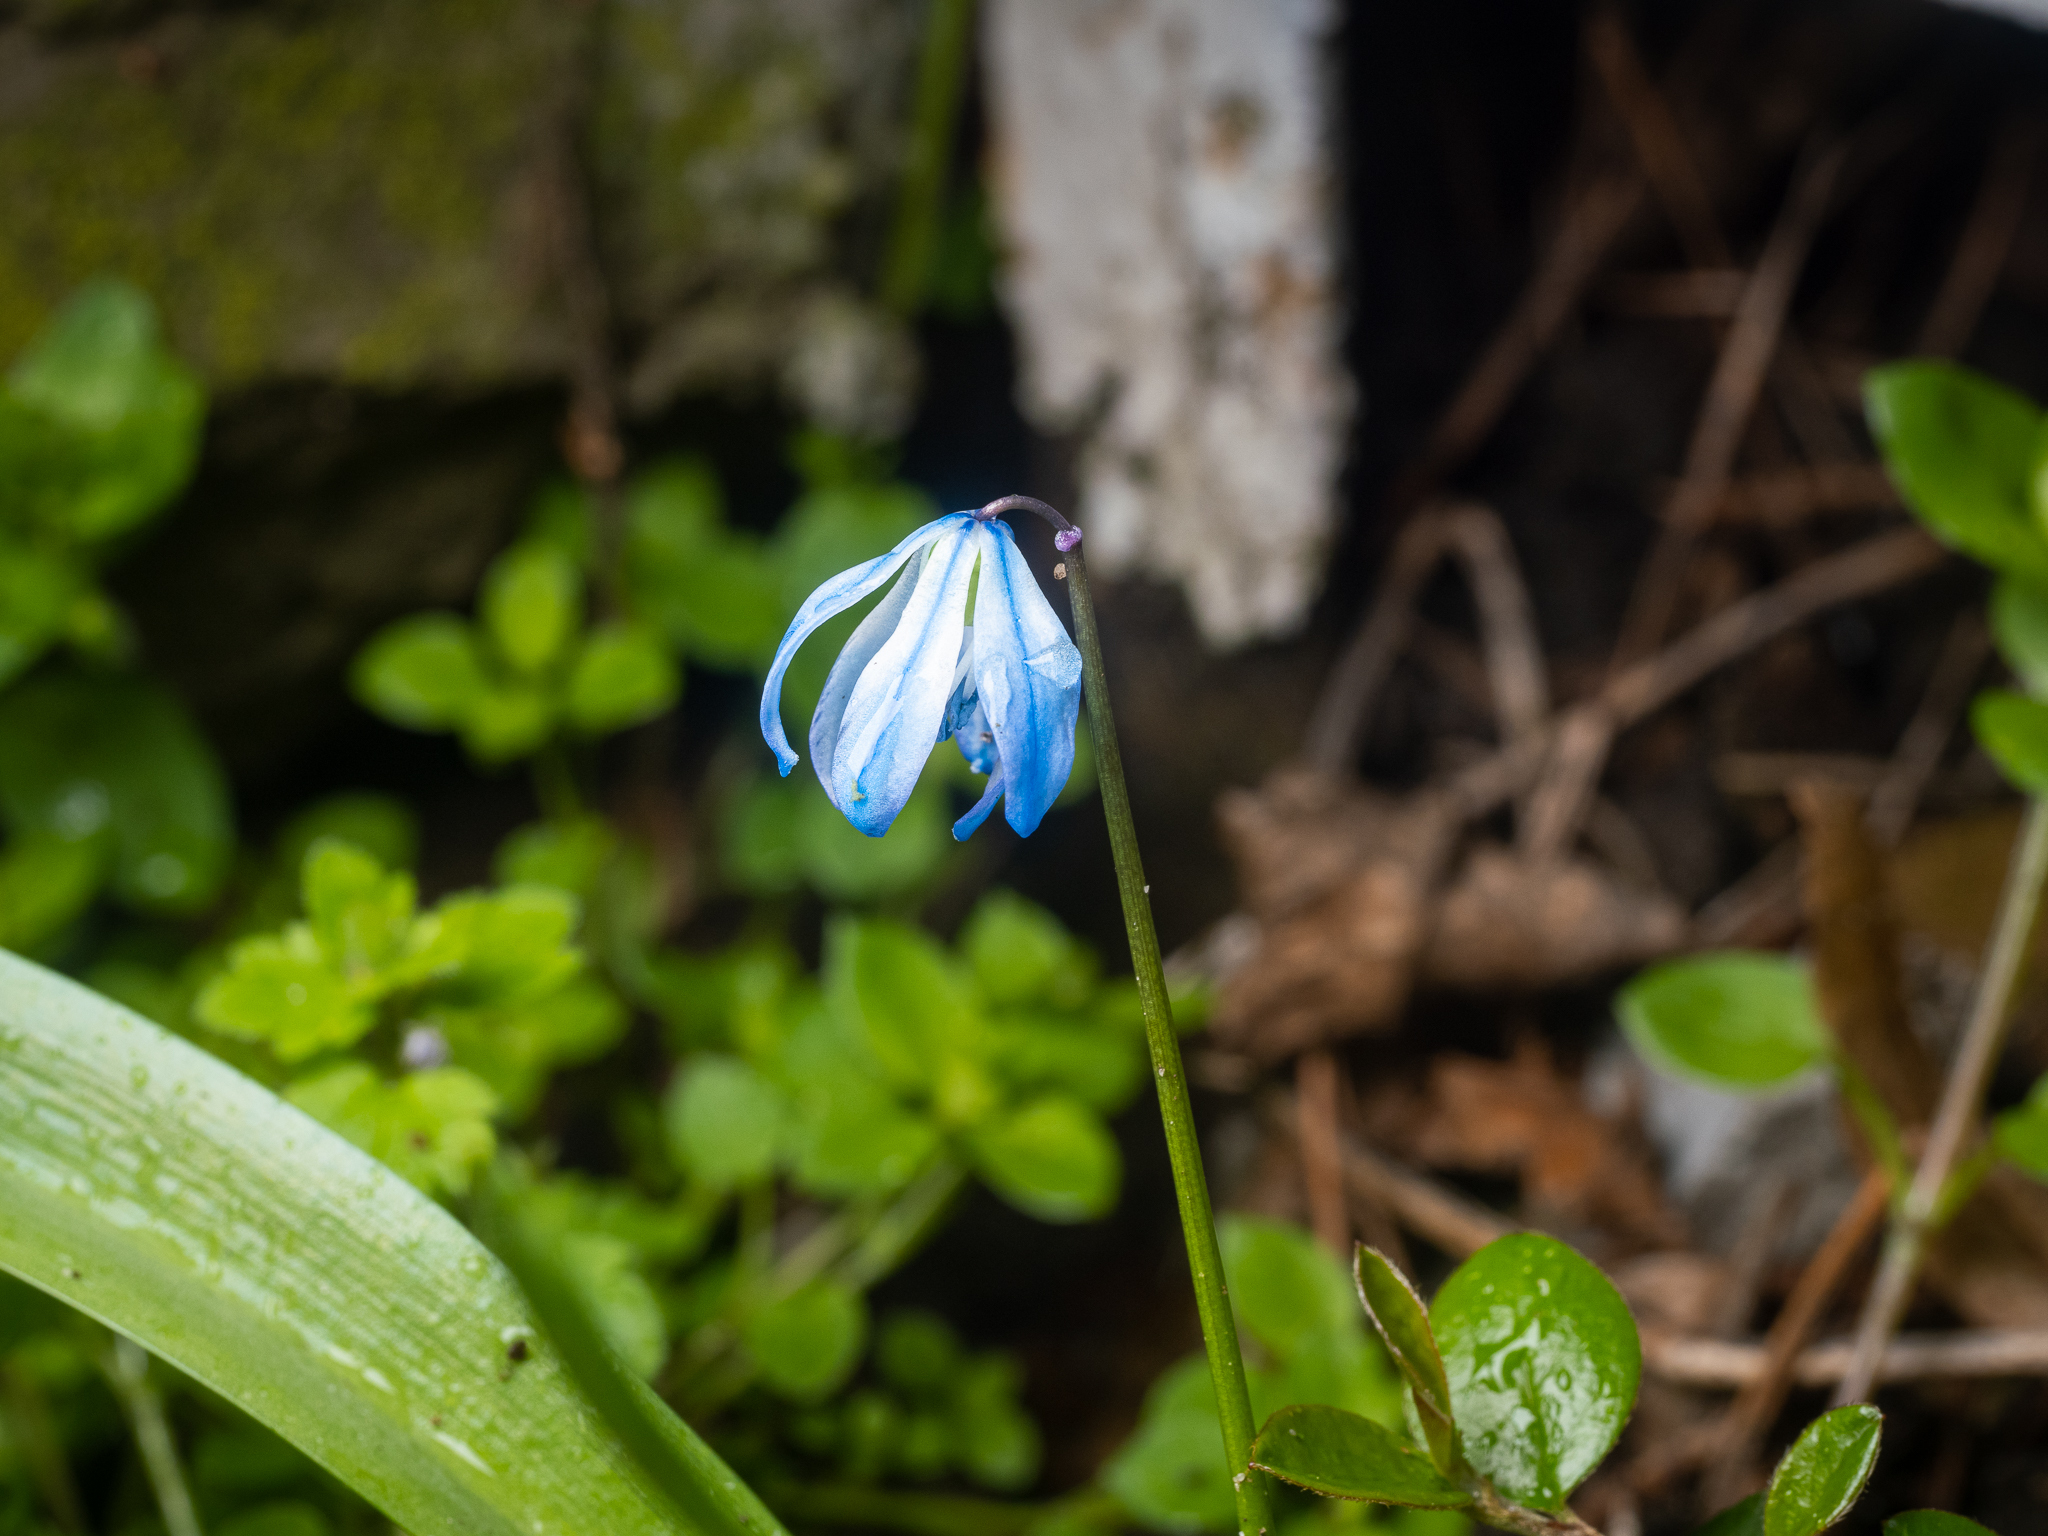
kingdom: Plantae
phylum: Tracheophyta
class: Liliopsida
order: Asparagales
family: Asparagaceae
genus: Scilla
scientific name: Scilla siberica
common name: Siberian squill
